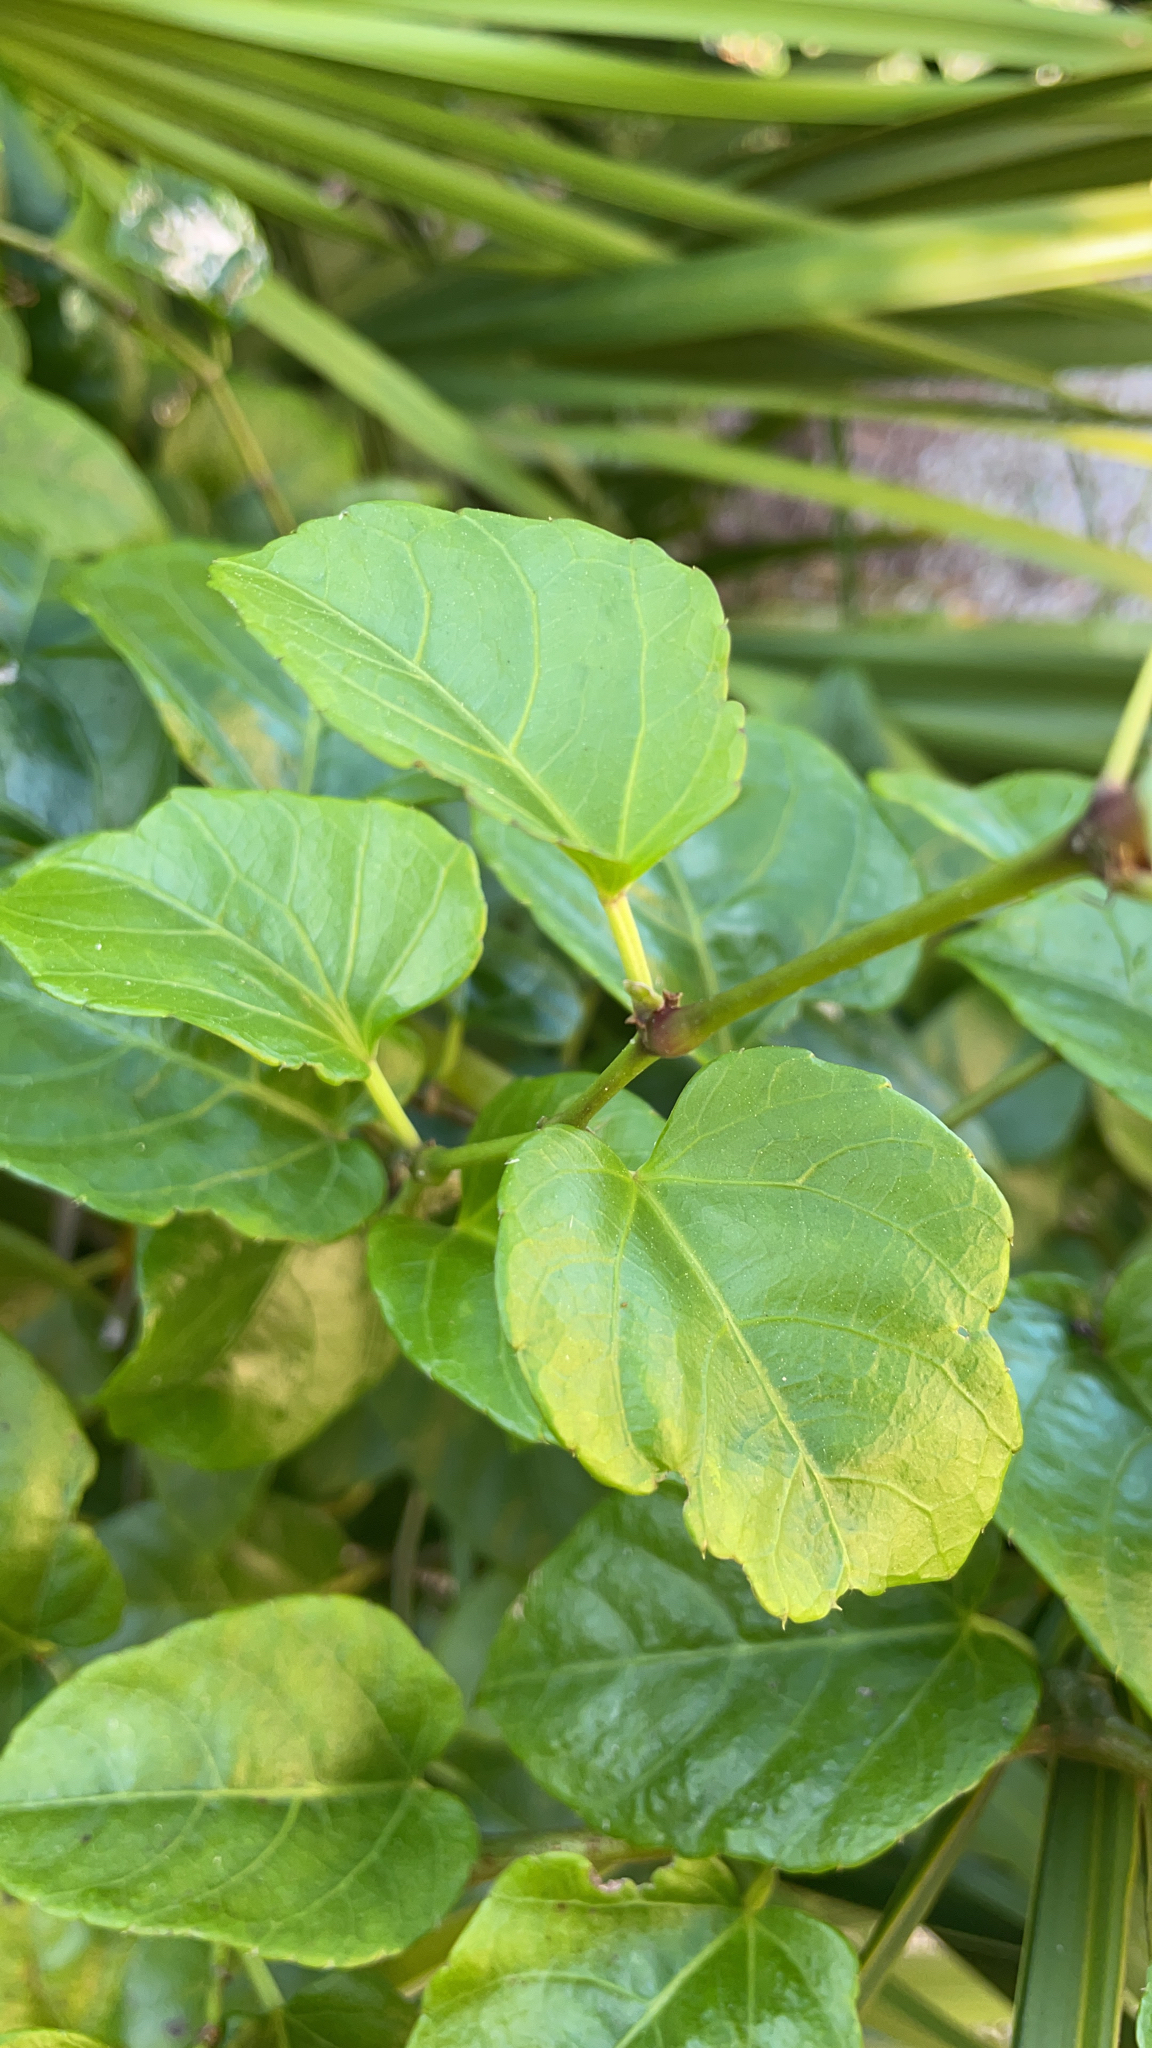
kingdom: Plantae
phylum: Tracheophyta
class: Magnoliopsida
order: Vitales
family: Vitaceae
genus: Cissus
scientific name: Cissus verticillata
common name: Princess vine
